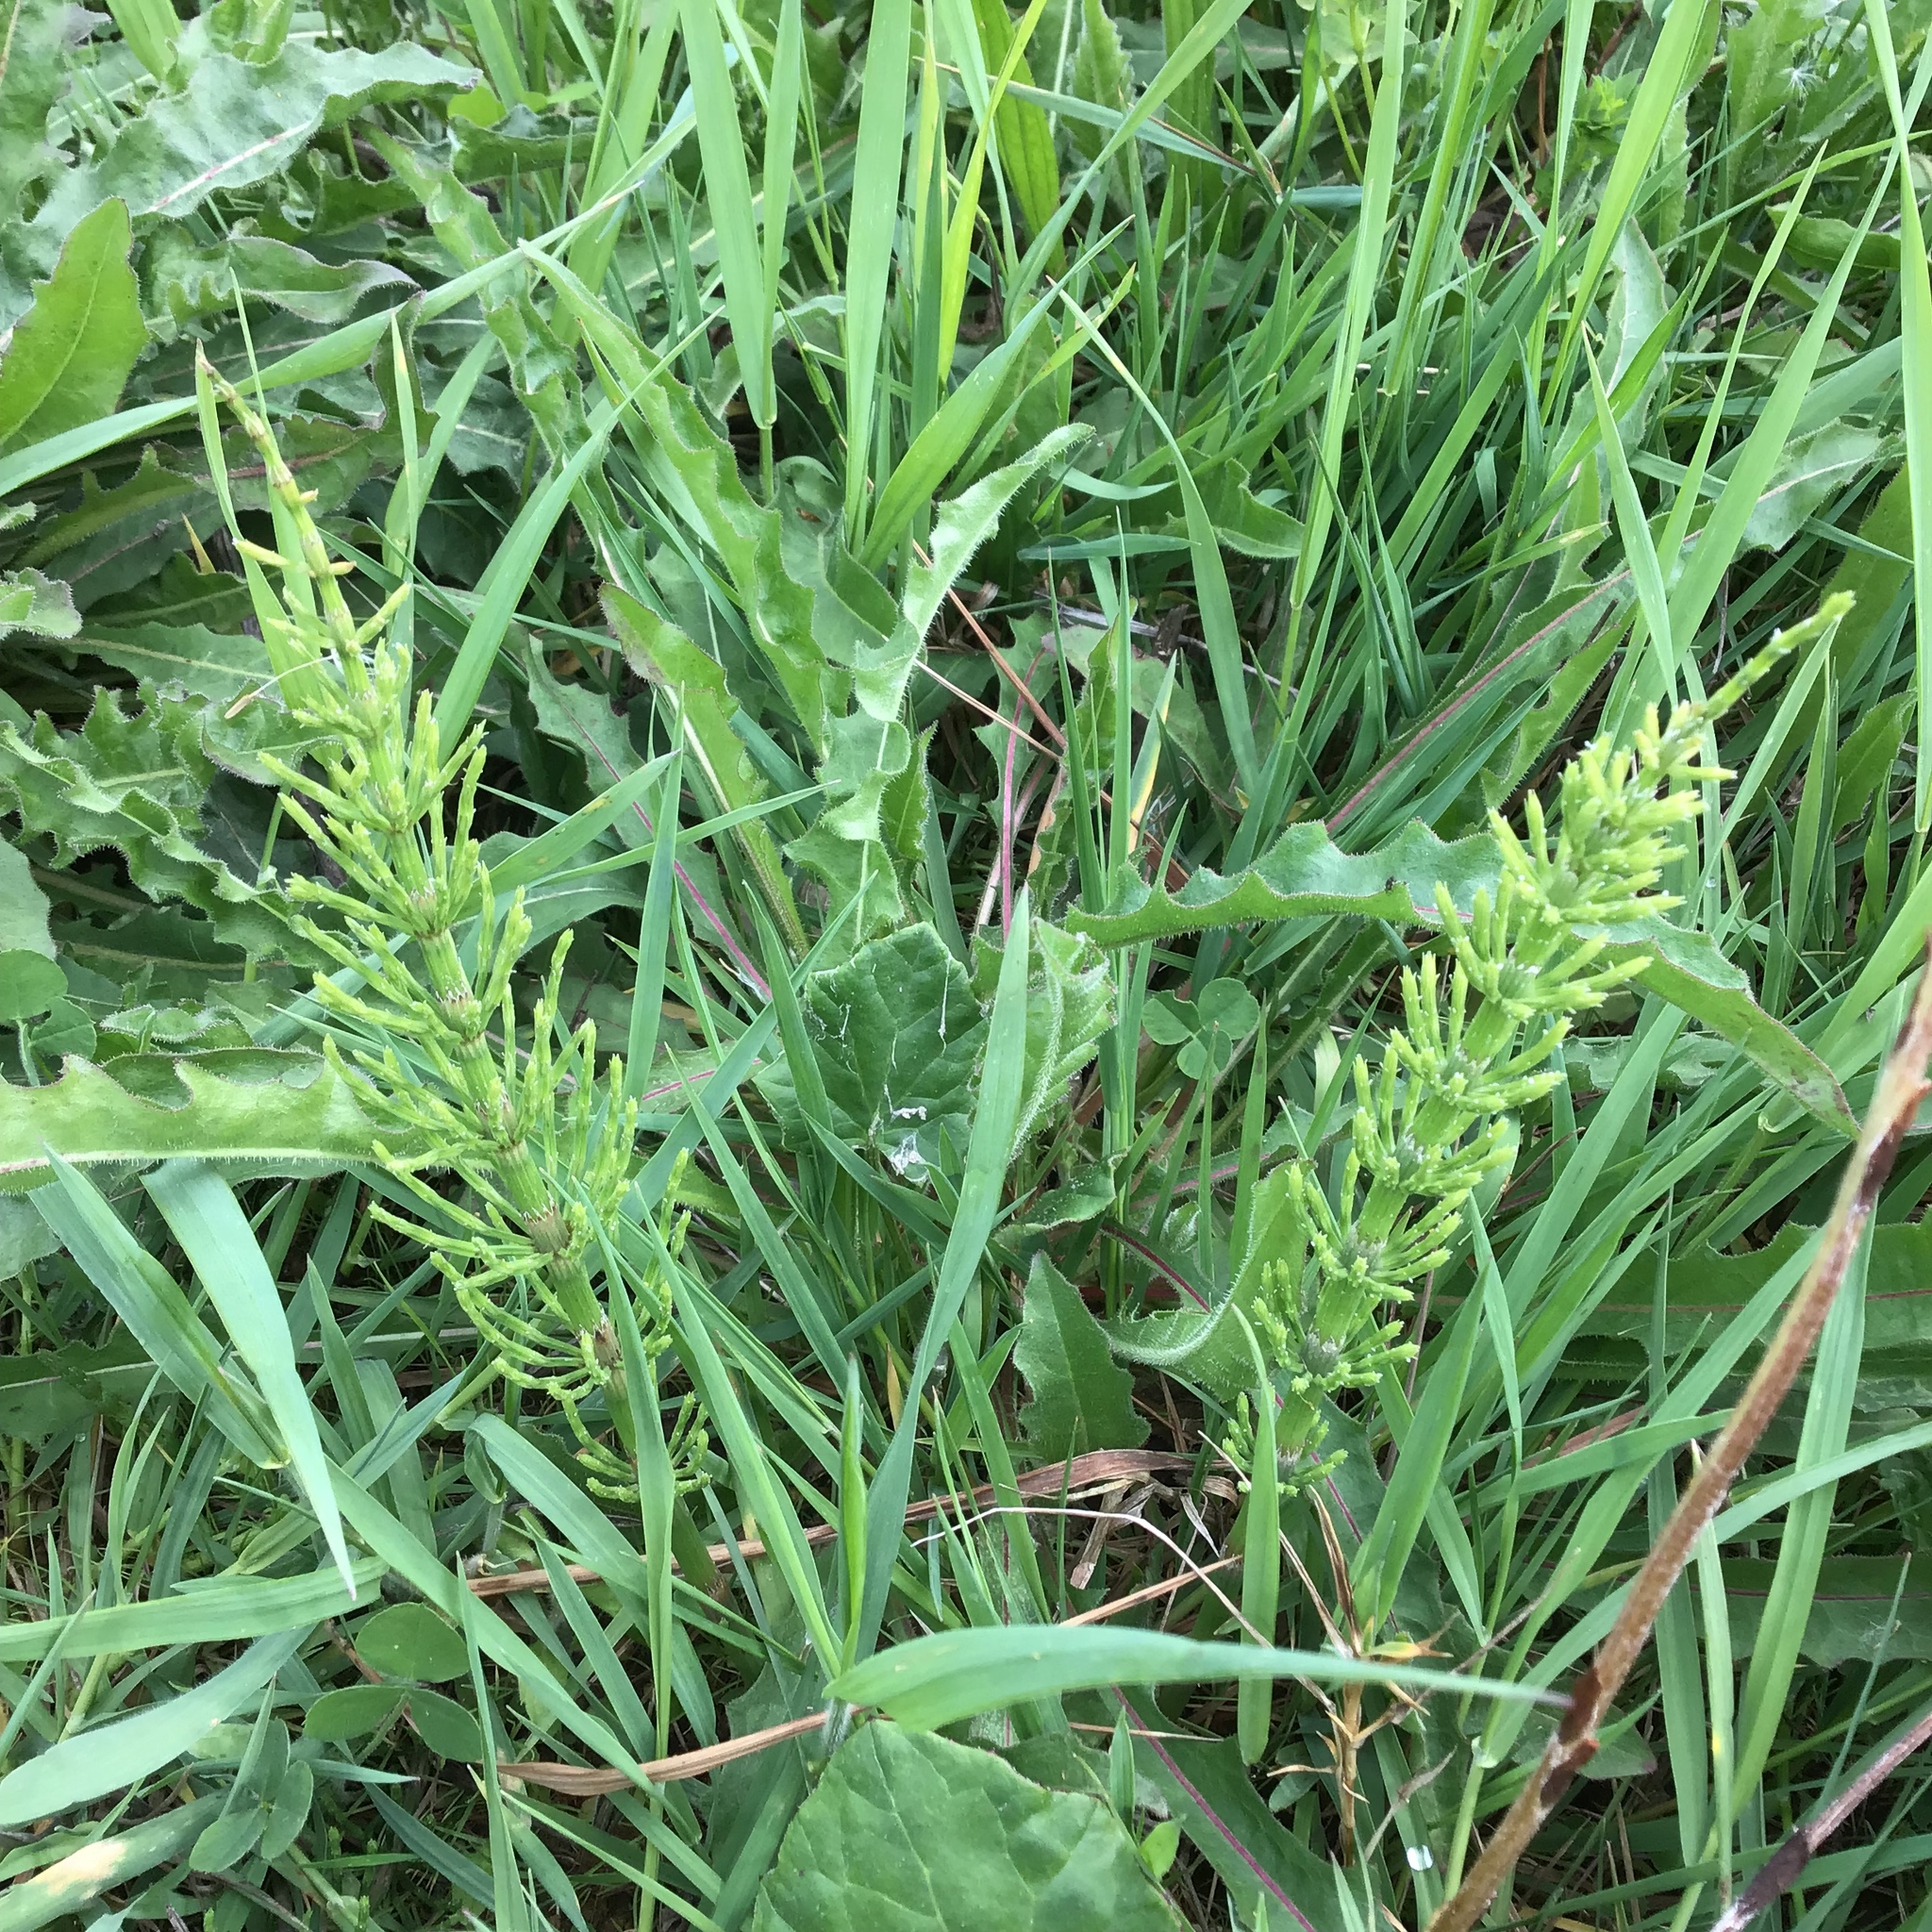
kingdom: Plantae
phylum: Tracheophyta
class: Polypodiopsida
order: Equisetales
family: Equisetaceae
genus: Equisetum
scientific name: Equisetum arvense
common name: Field horsetail
